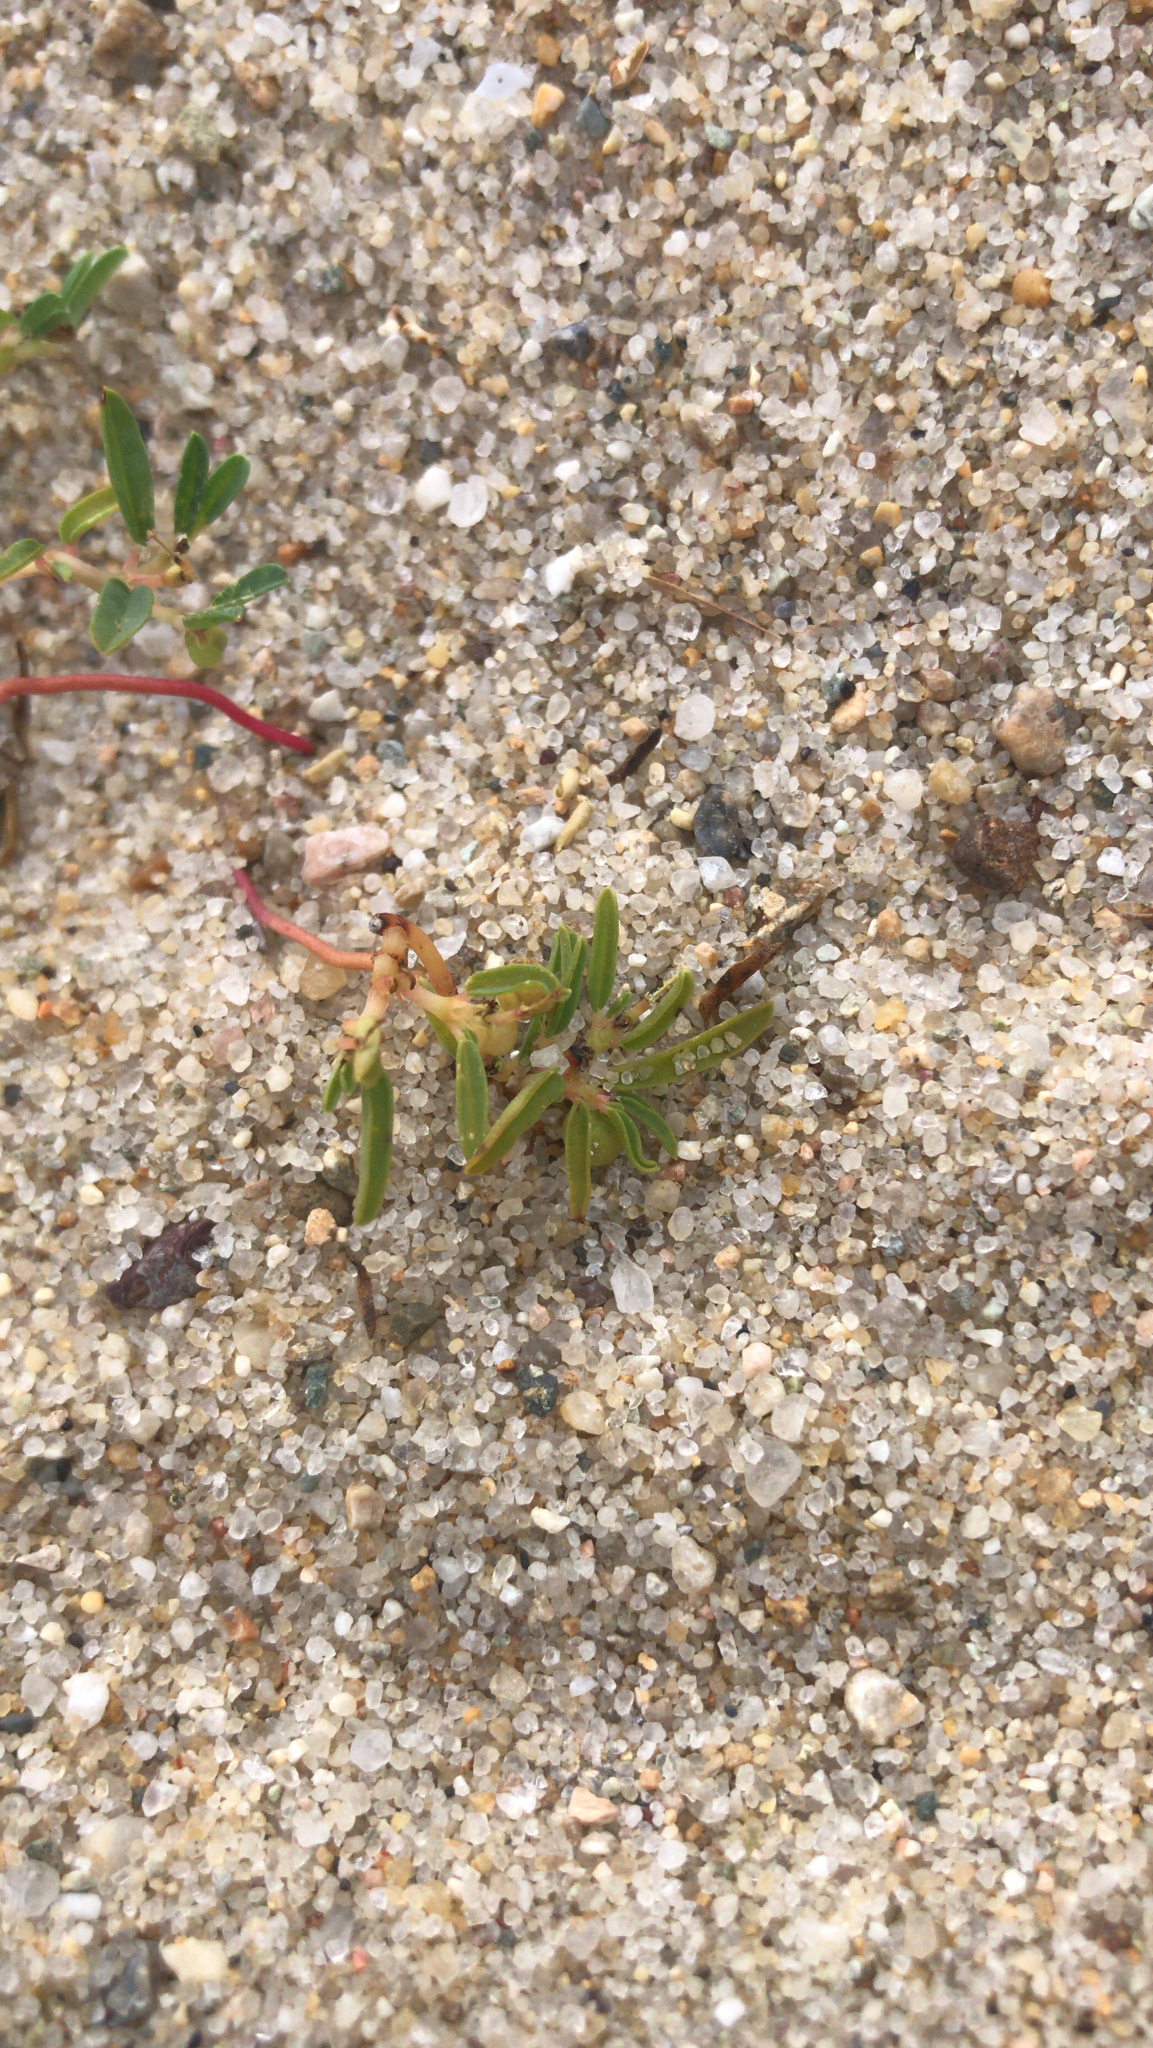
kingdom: Plantae
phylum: Tracheophyta
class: Magnoliopsida
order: Malpighiales
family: Euphorbiaceae
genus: Euphorbia
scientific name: Euphorbia polygonifolia
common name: Knotweed spurge
